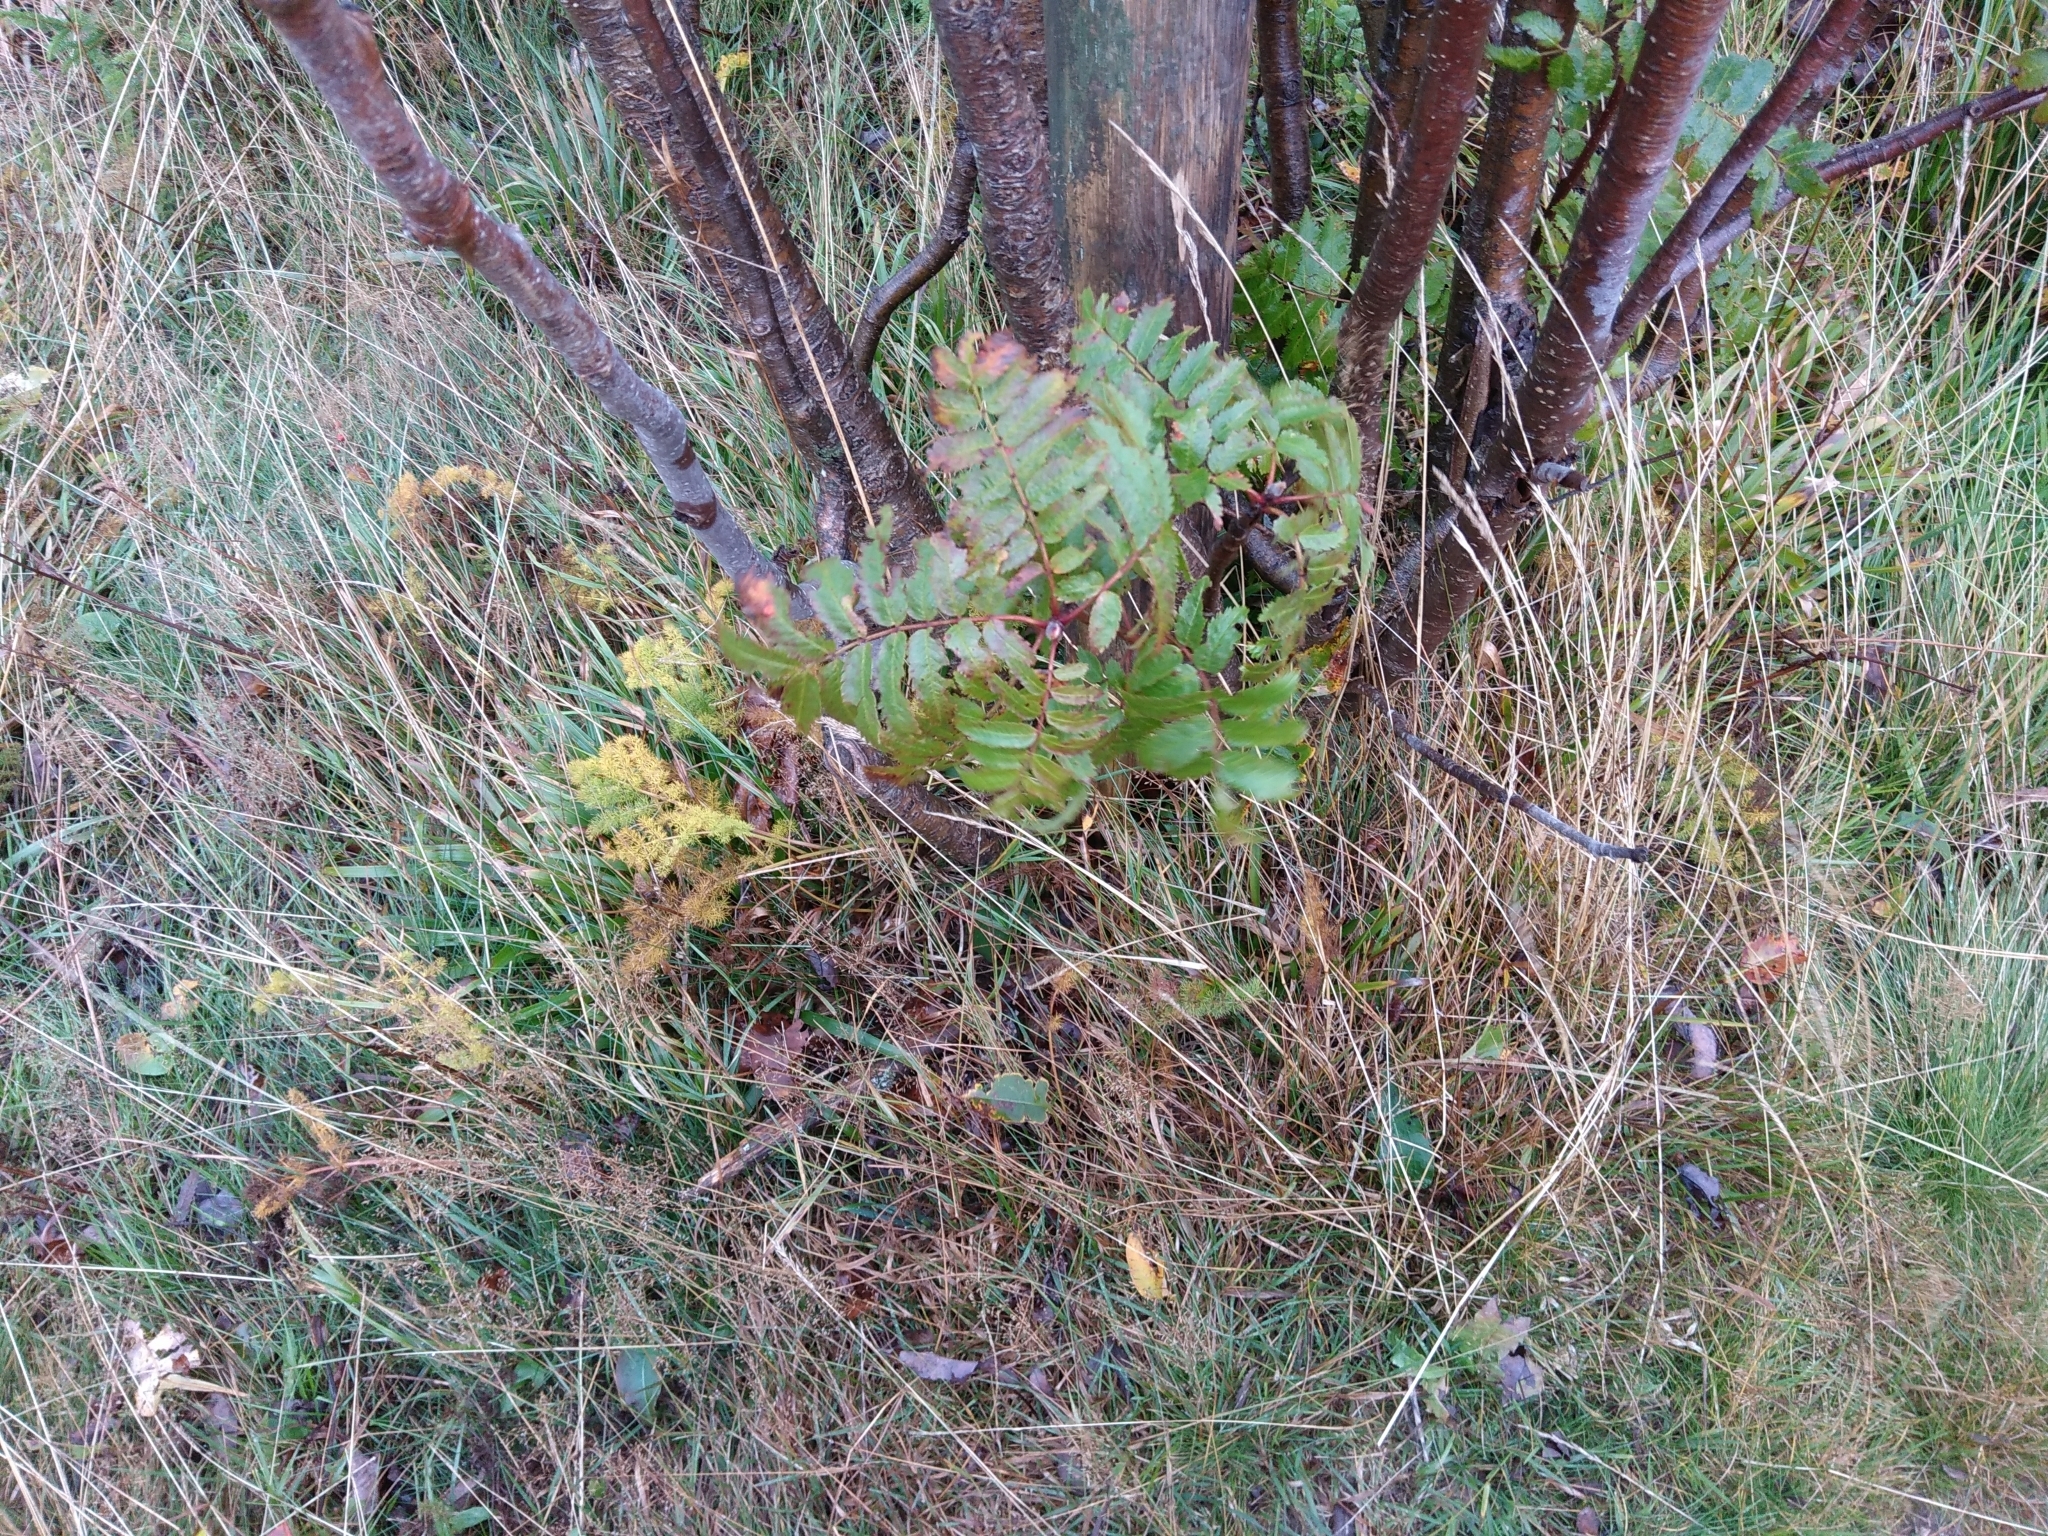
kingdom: Plantae
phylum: Tracheophyta
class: Magnoliopsida
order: Rosales
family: Rosaceae
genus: Sorbus
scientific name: Sorbus aucuparia
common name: Rowan
